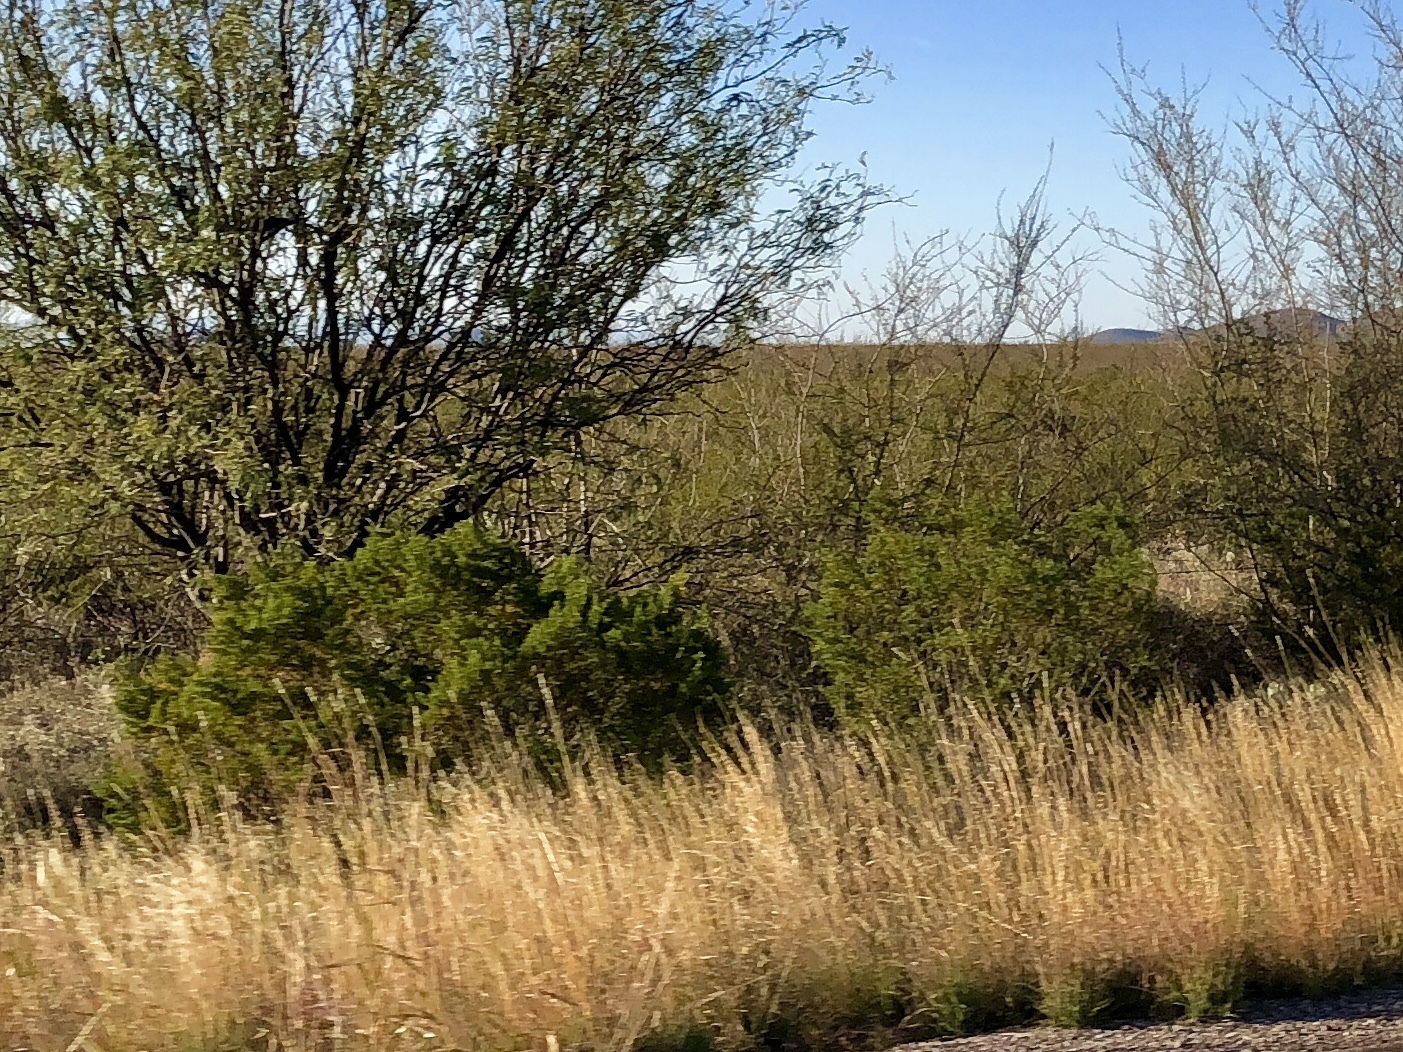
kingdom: Plantae
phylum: Tracheophyta
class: Magnoliopsida
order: Zygophyllales
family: Zygophyllaceae
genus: Larrea
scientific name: Larrea tridentata
